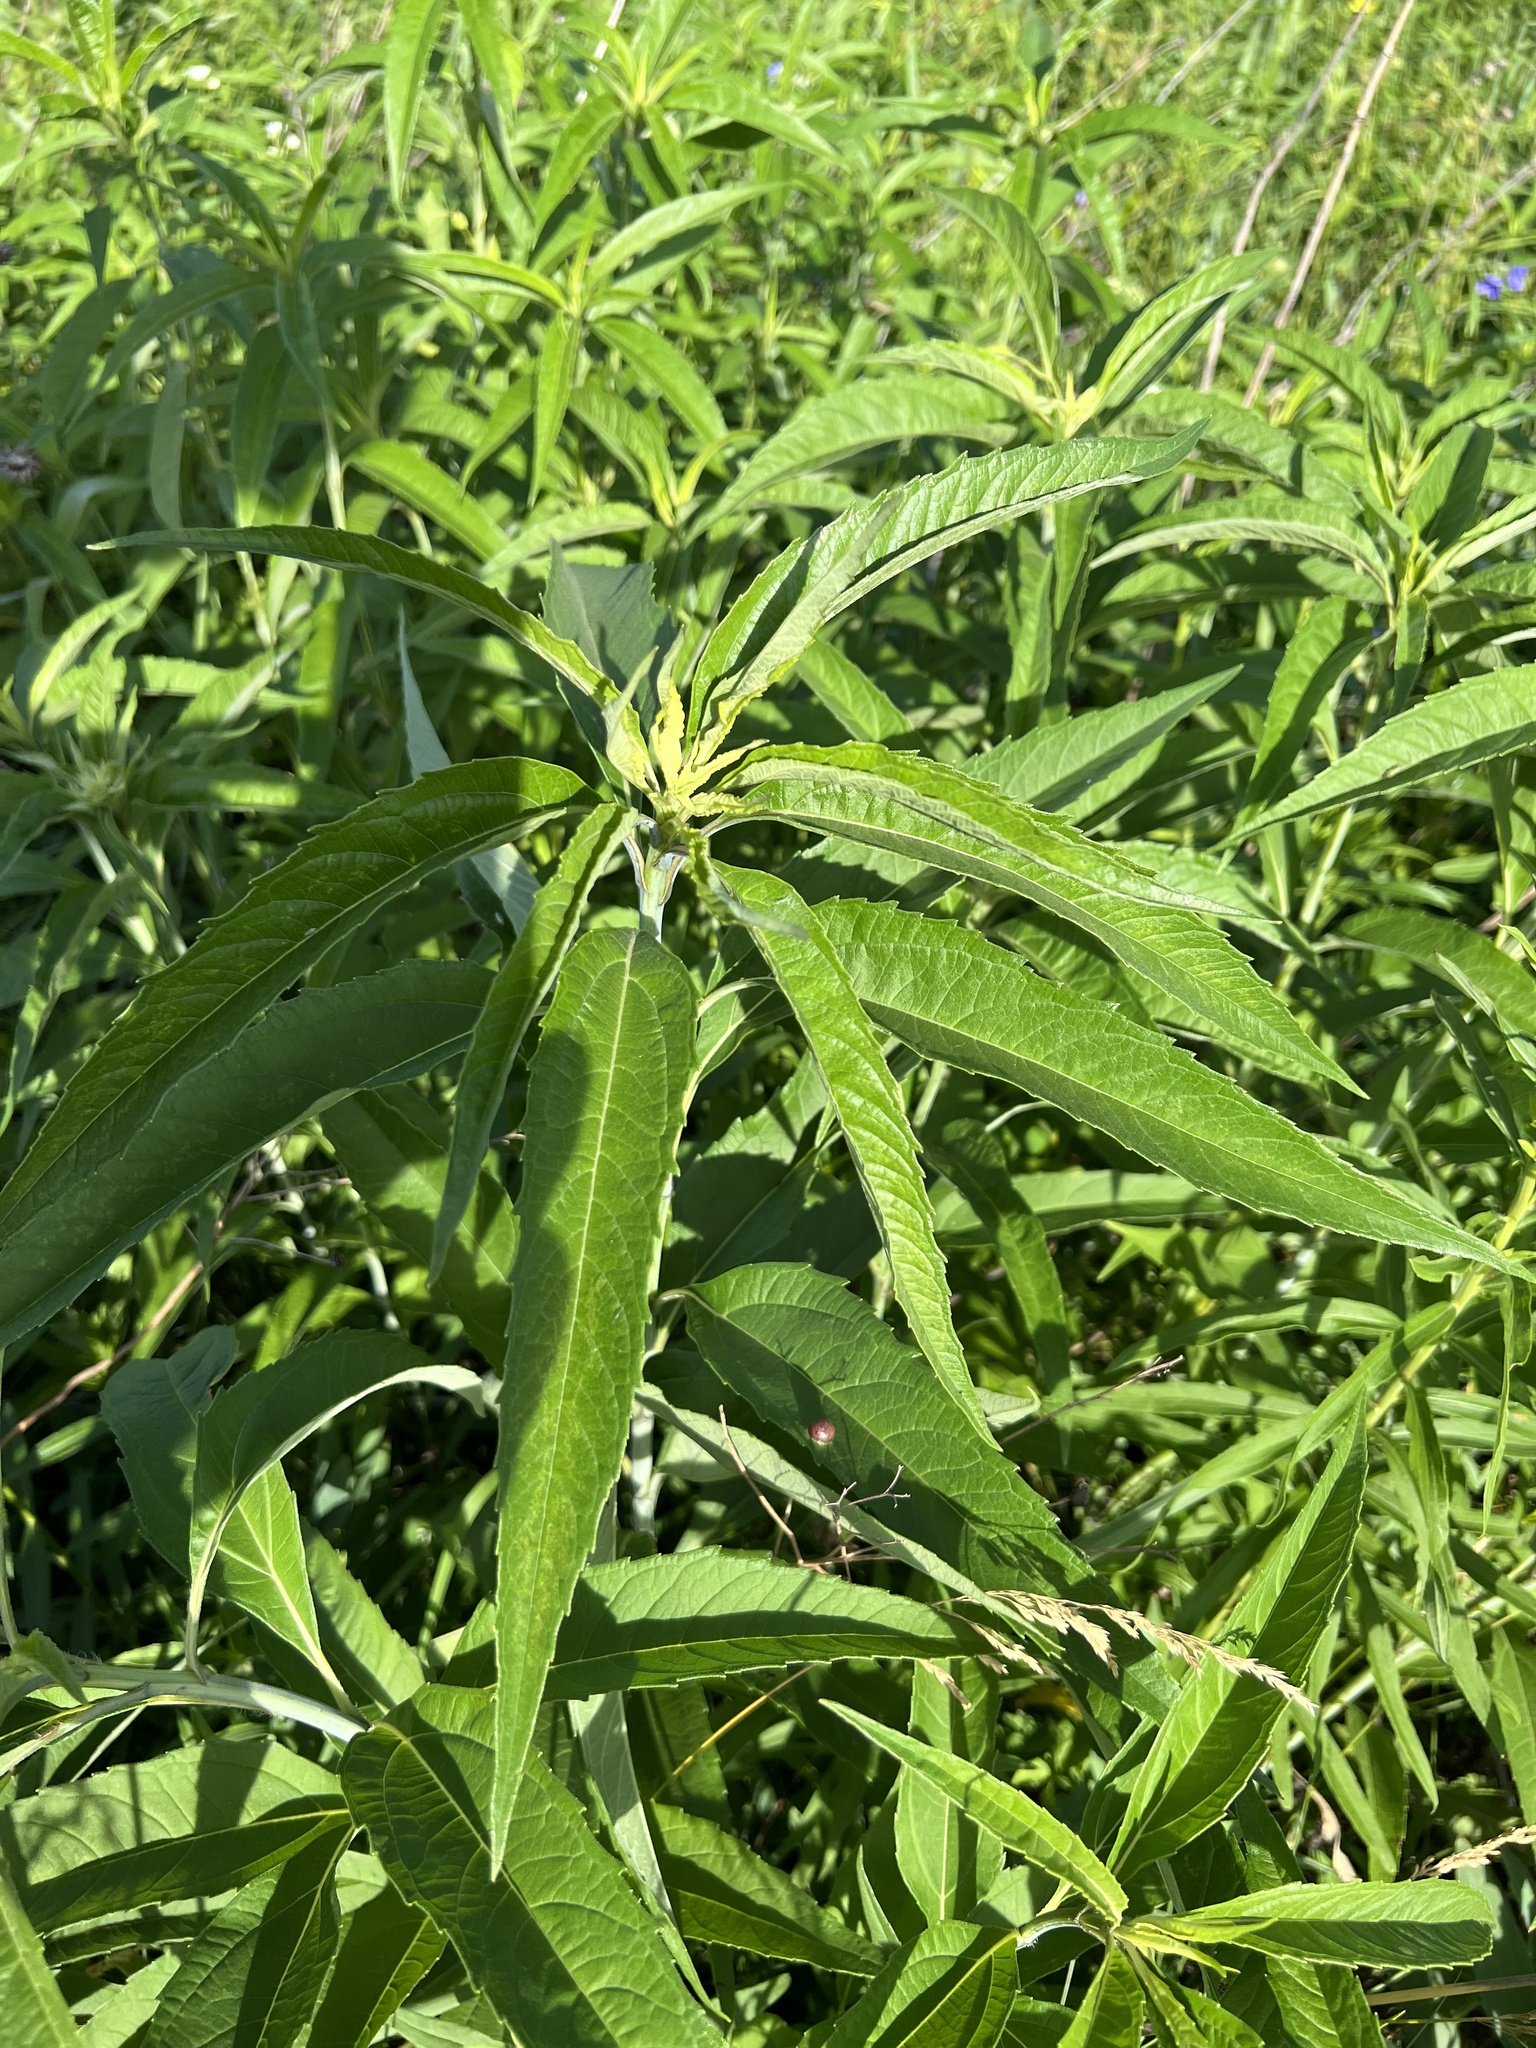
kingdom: Plantae
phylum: Tracheophyta
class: Magnoliopsida
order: Asterales
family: Asteraceae
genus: Helianthus
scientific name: Helianthus grosseserratus
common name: Sawtooth sunflower
